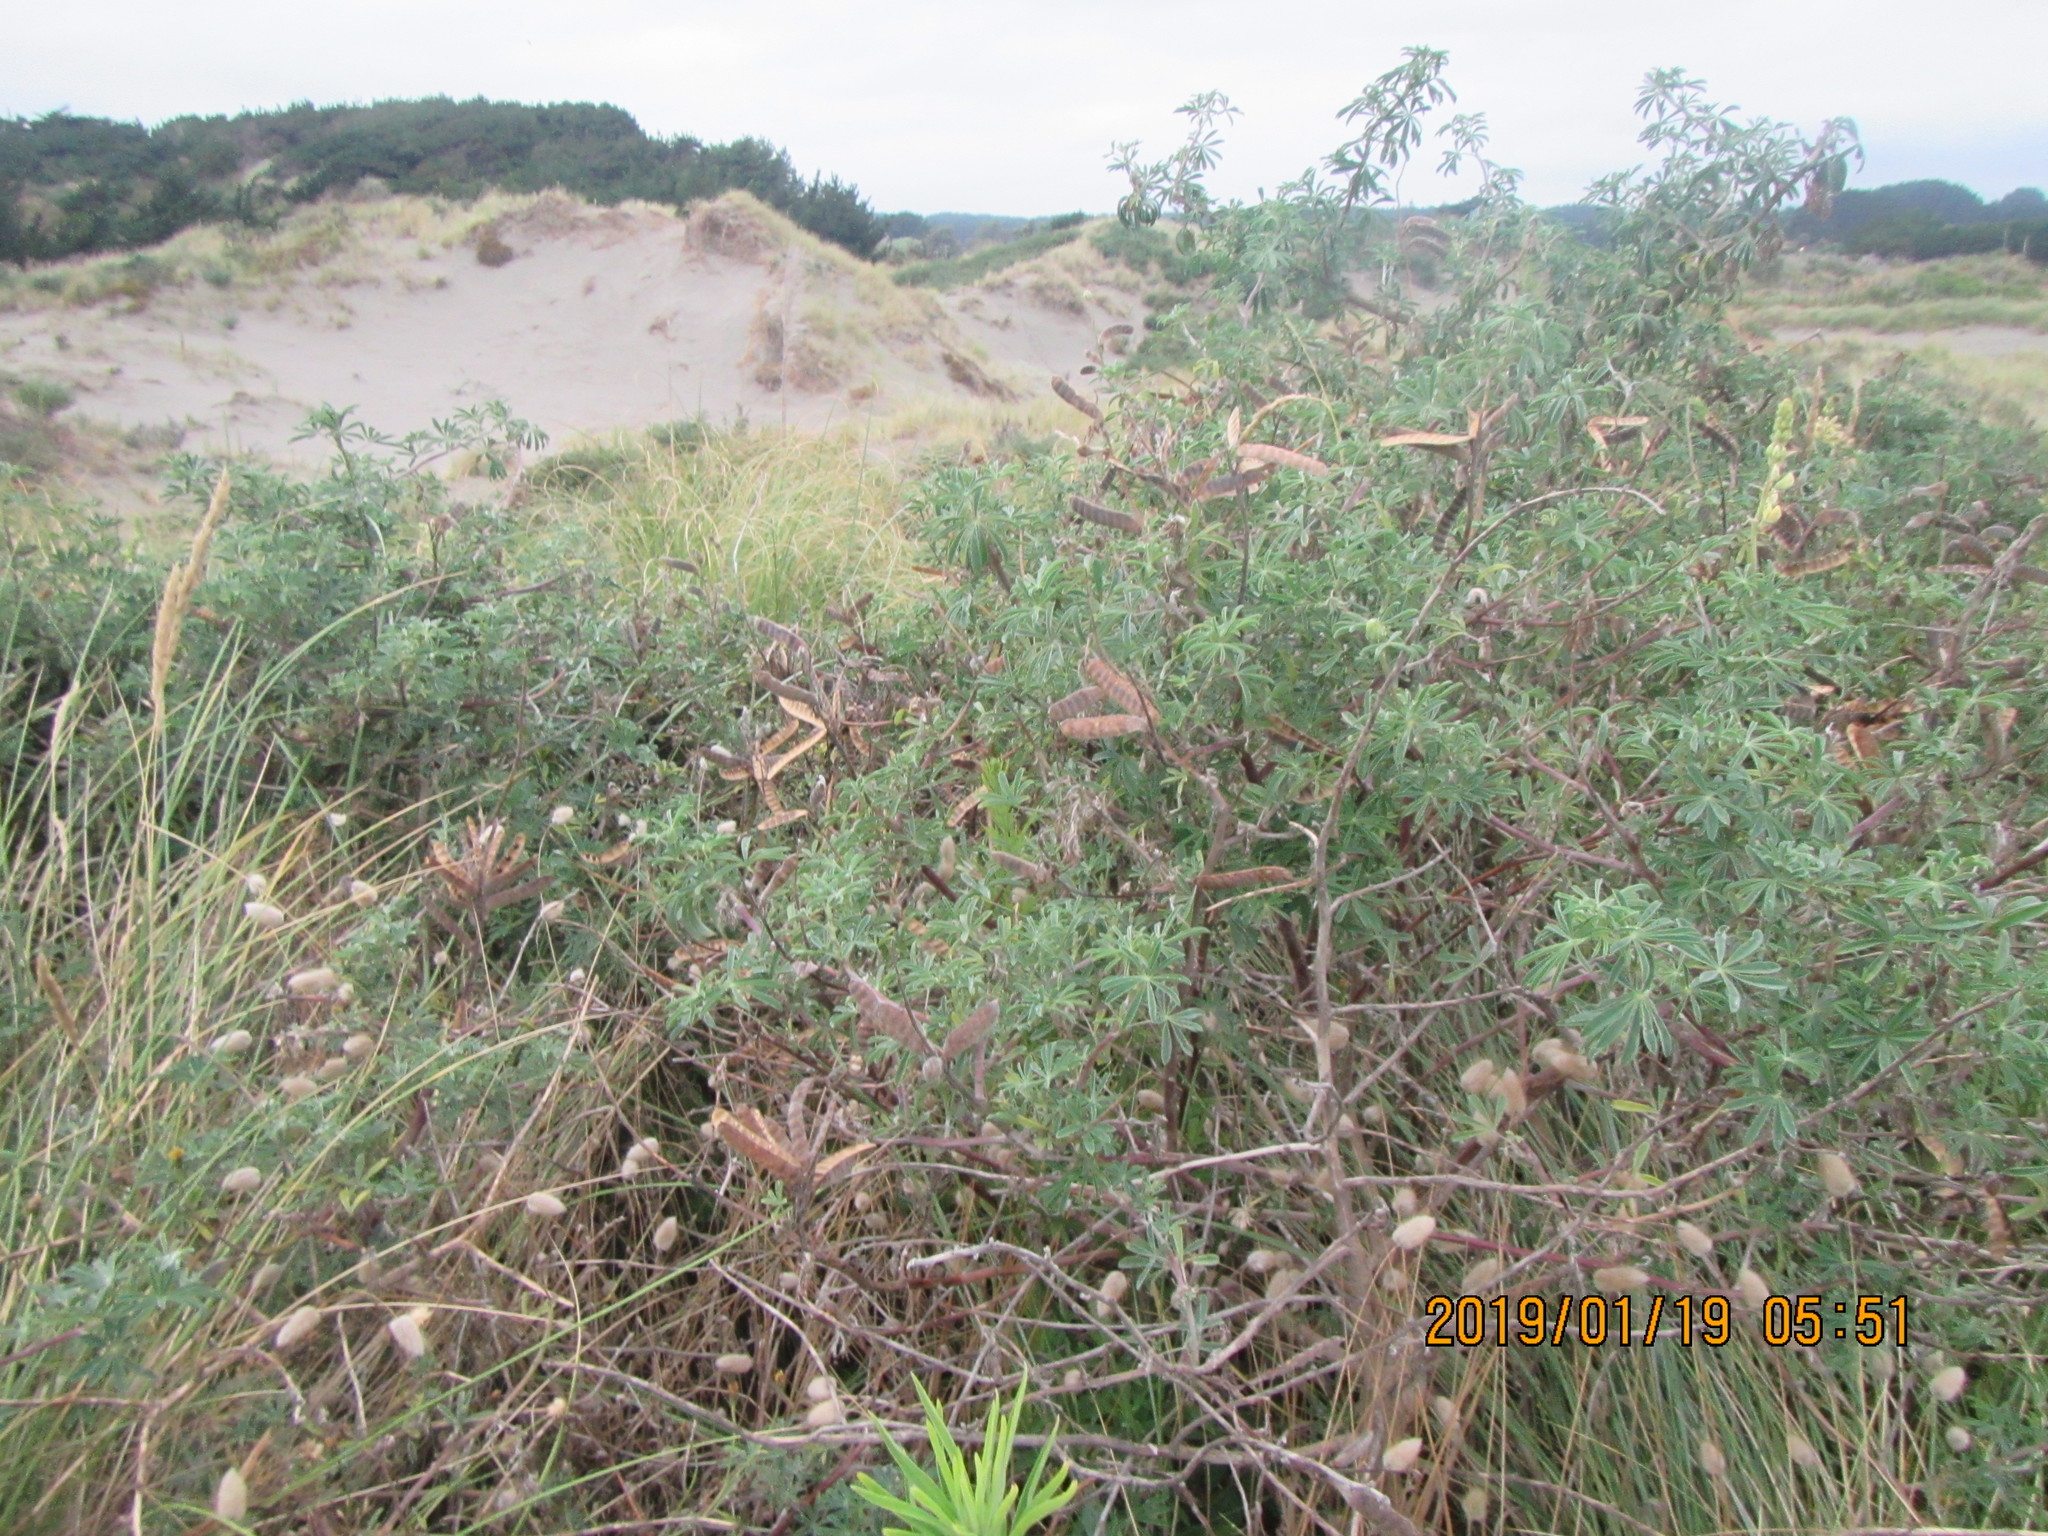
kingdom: Plantae
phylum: Tracheophyta
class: Magnoliopsida
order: Fabales
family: Fabaceae
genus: Lupinus
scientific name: Lupinus arboreus
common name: Yellow bush lupine
